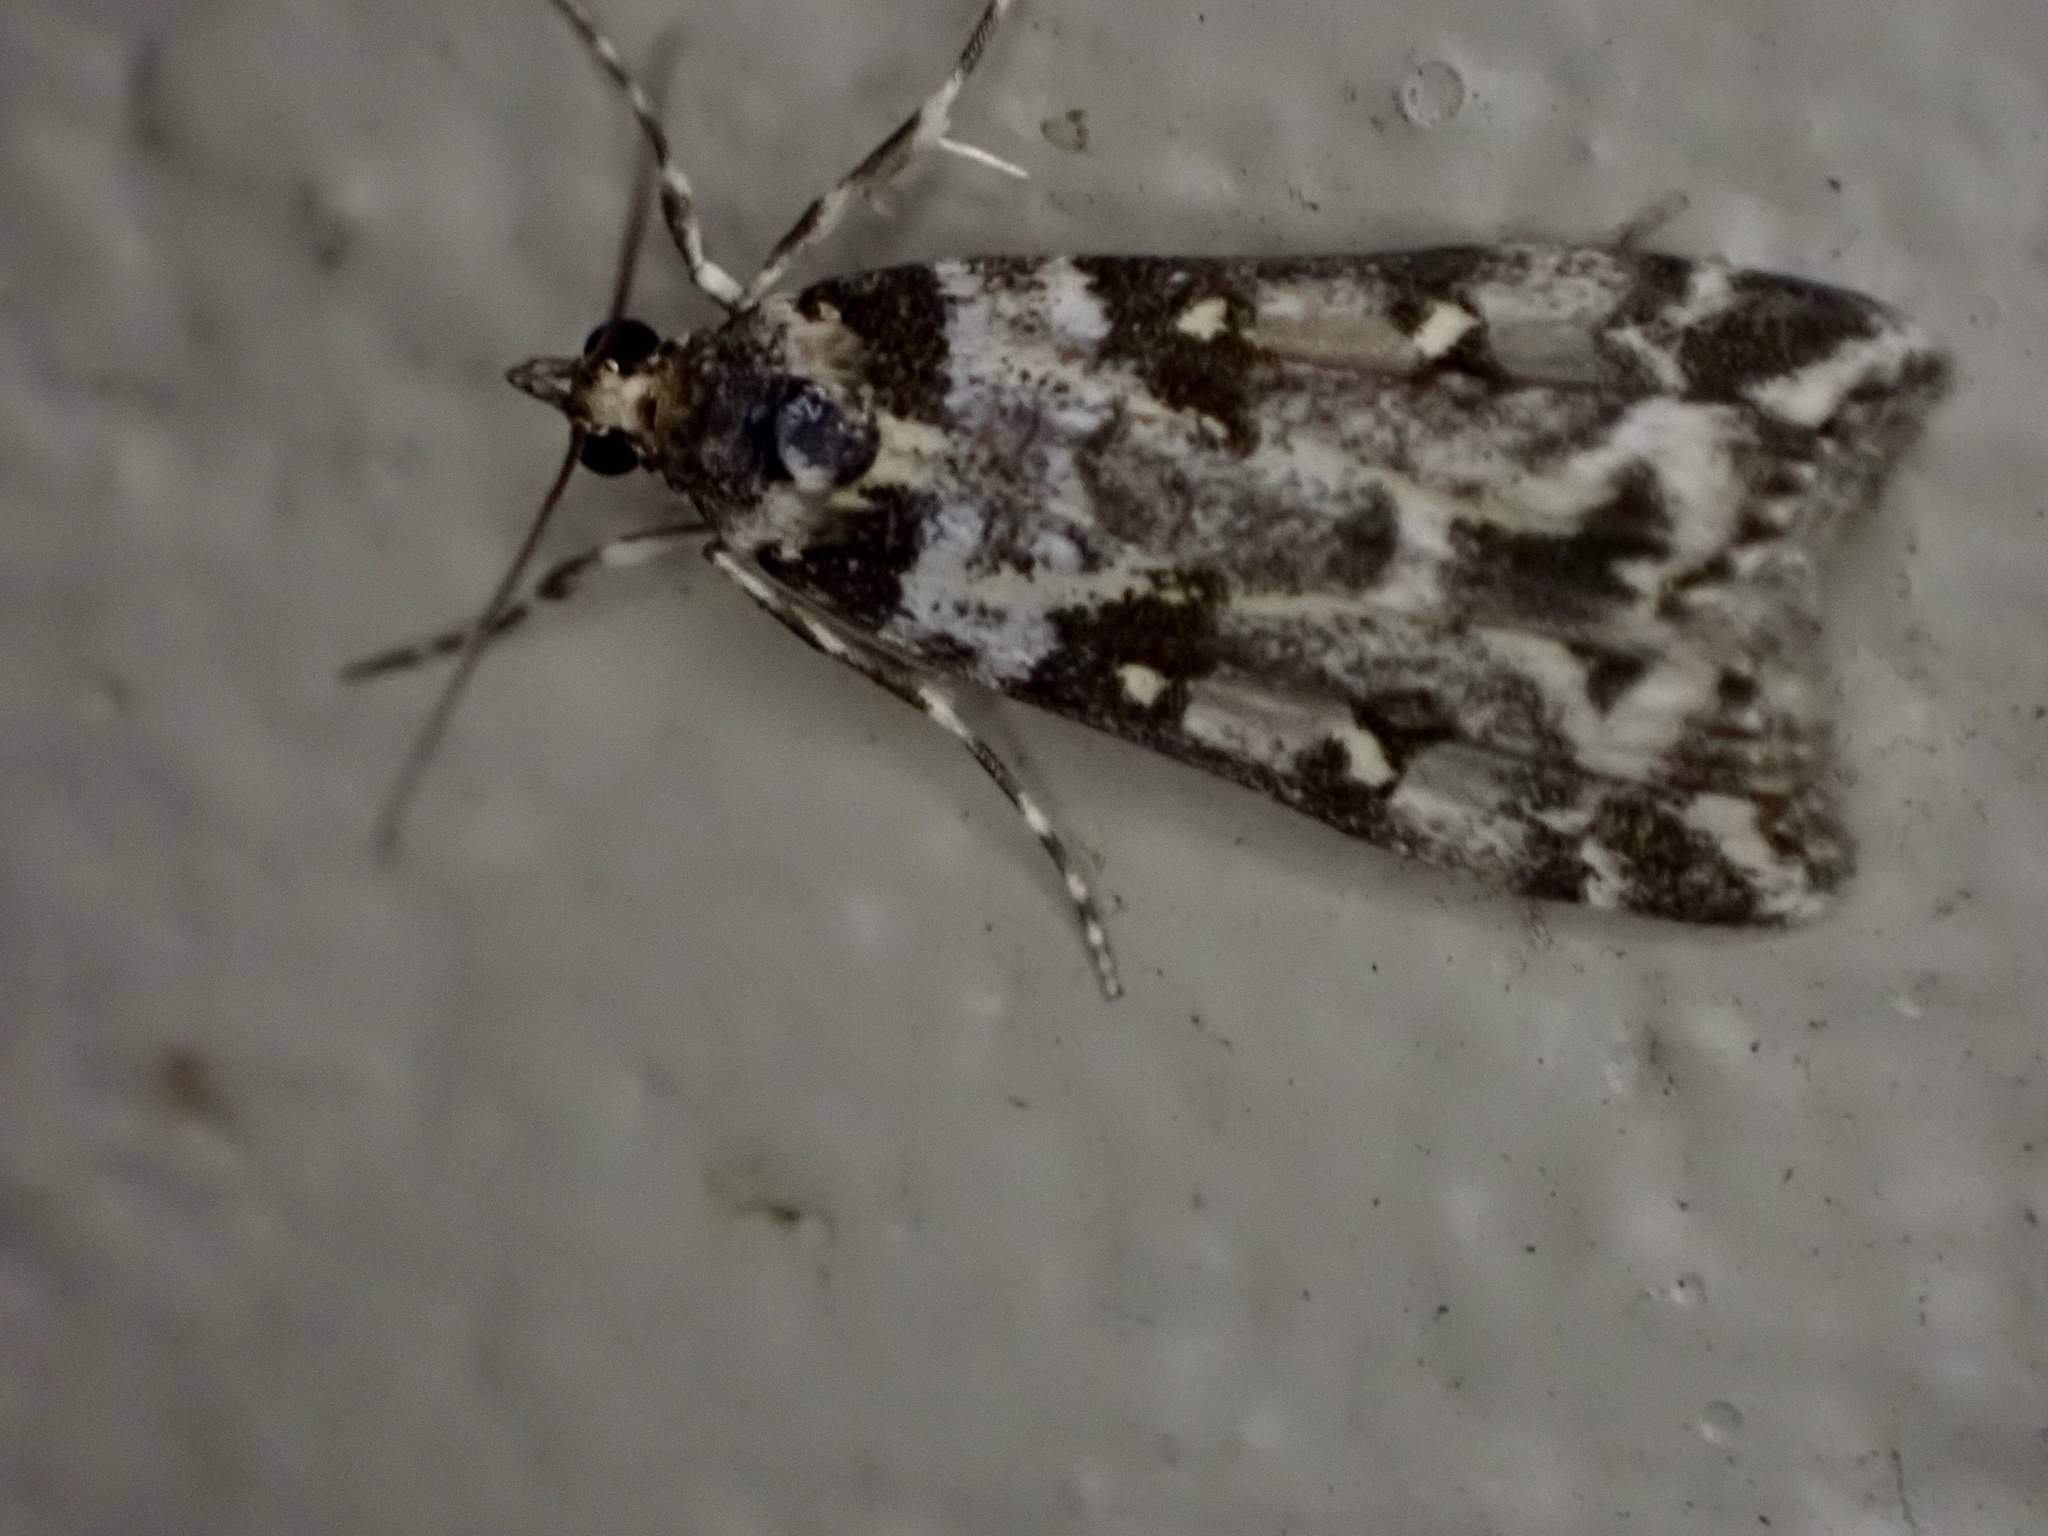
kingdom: Animalia
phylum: Arthropoda
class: Insecta
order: Lepidoptera
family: Crambidae
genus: Eudonia
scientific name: Eudonia diphtheralis
